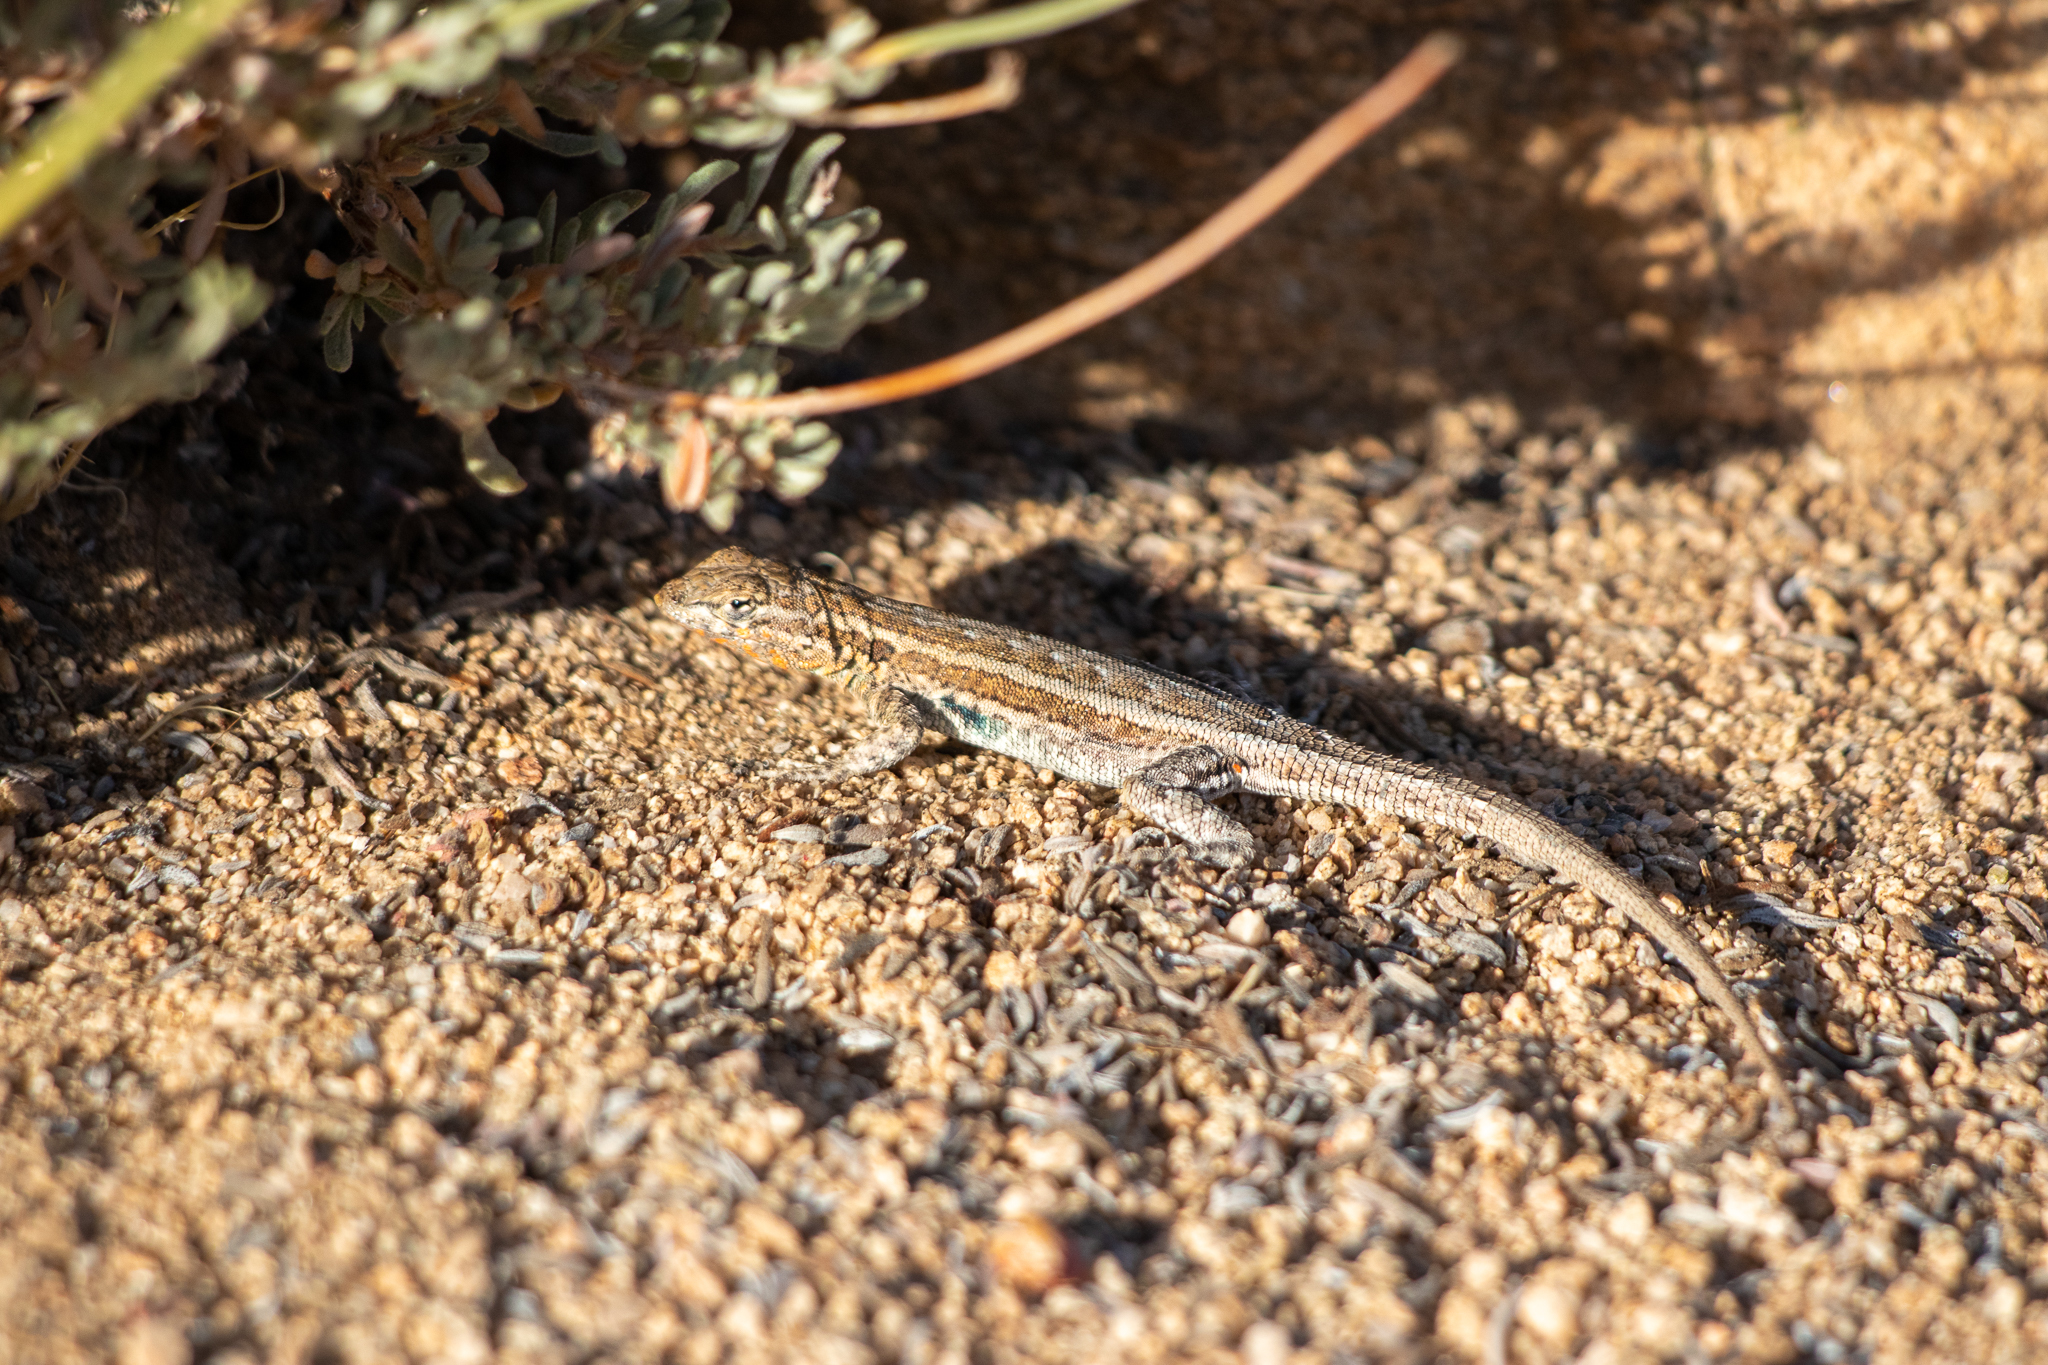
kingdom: Animalia
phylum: Chordata
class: Squamata
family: Phrynosomatidae
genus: Uta
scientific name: Uta stansburiana
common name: Side-blotched lizard
